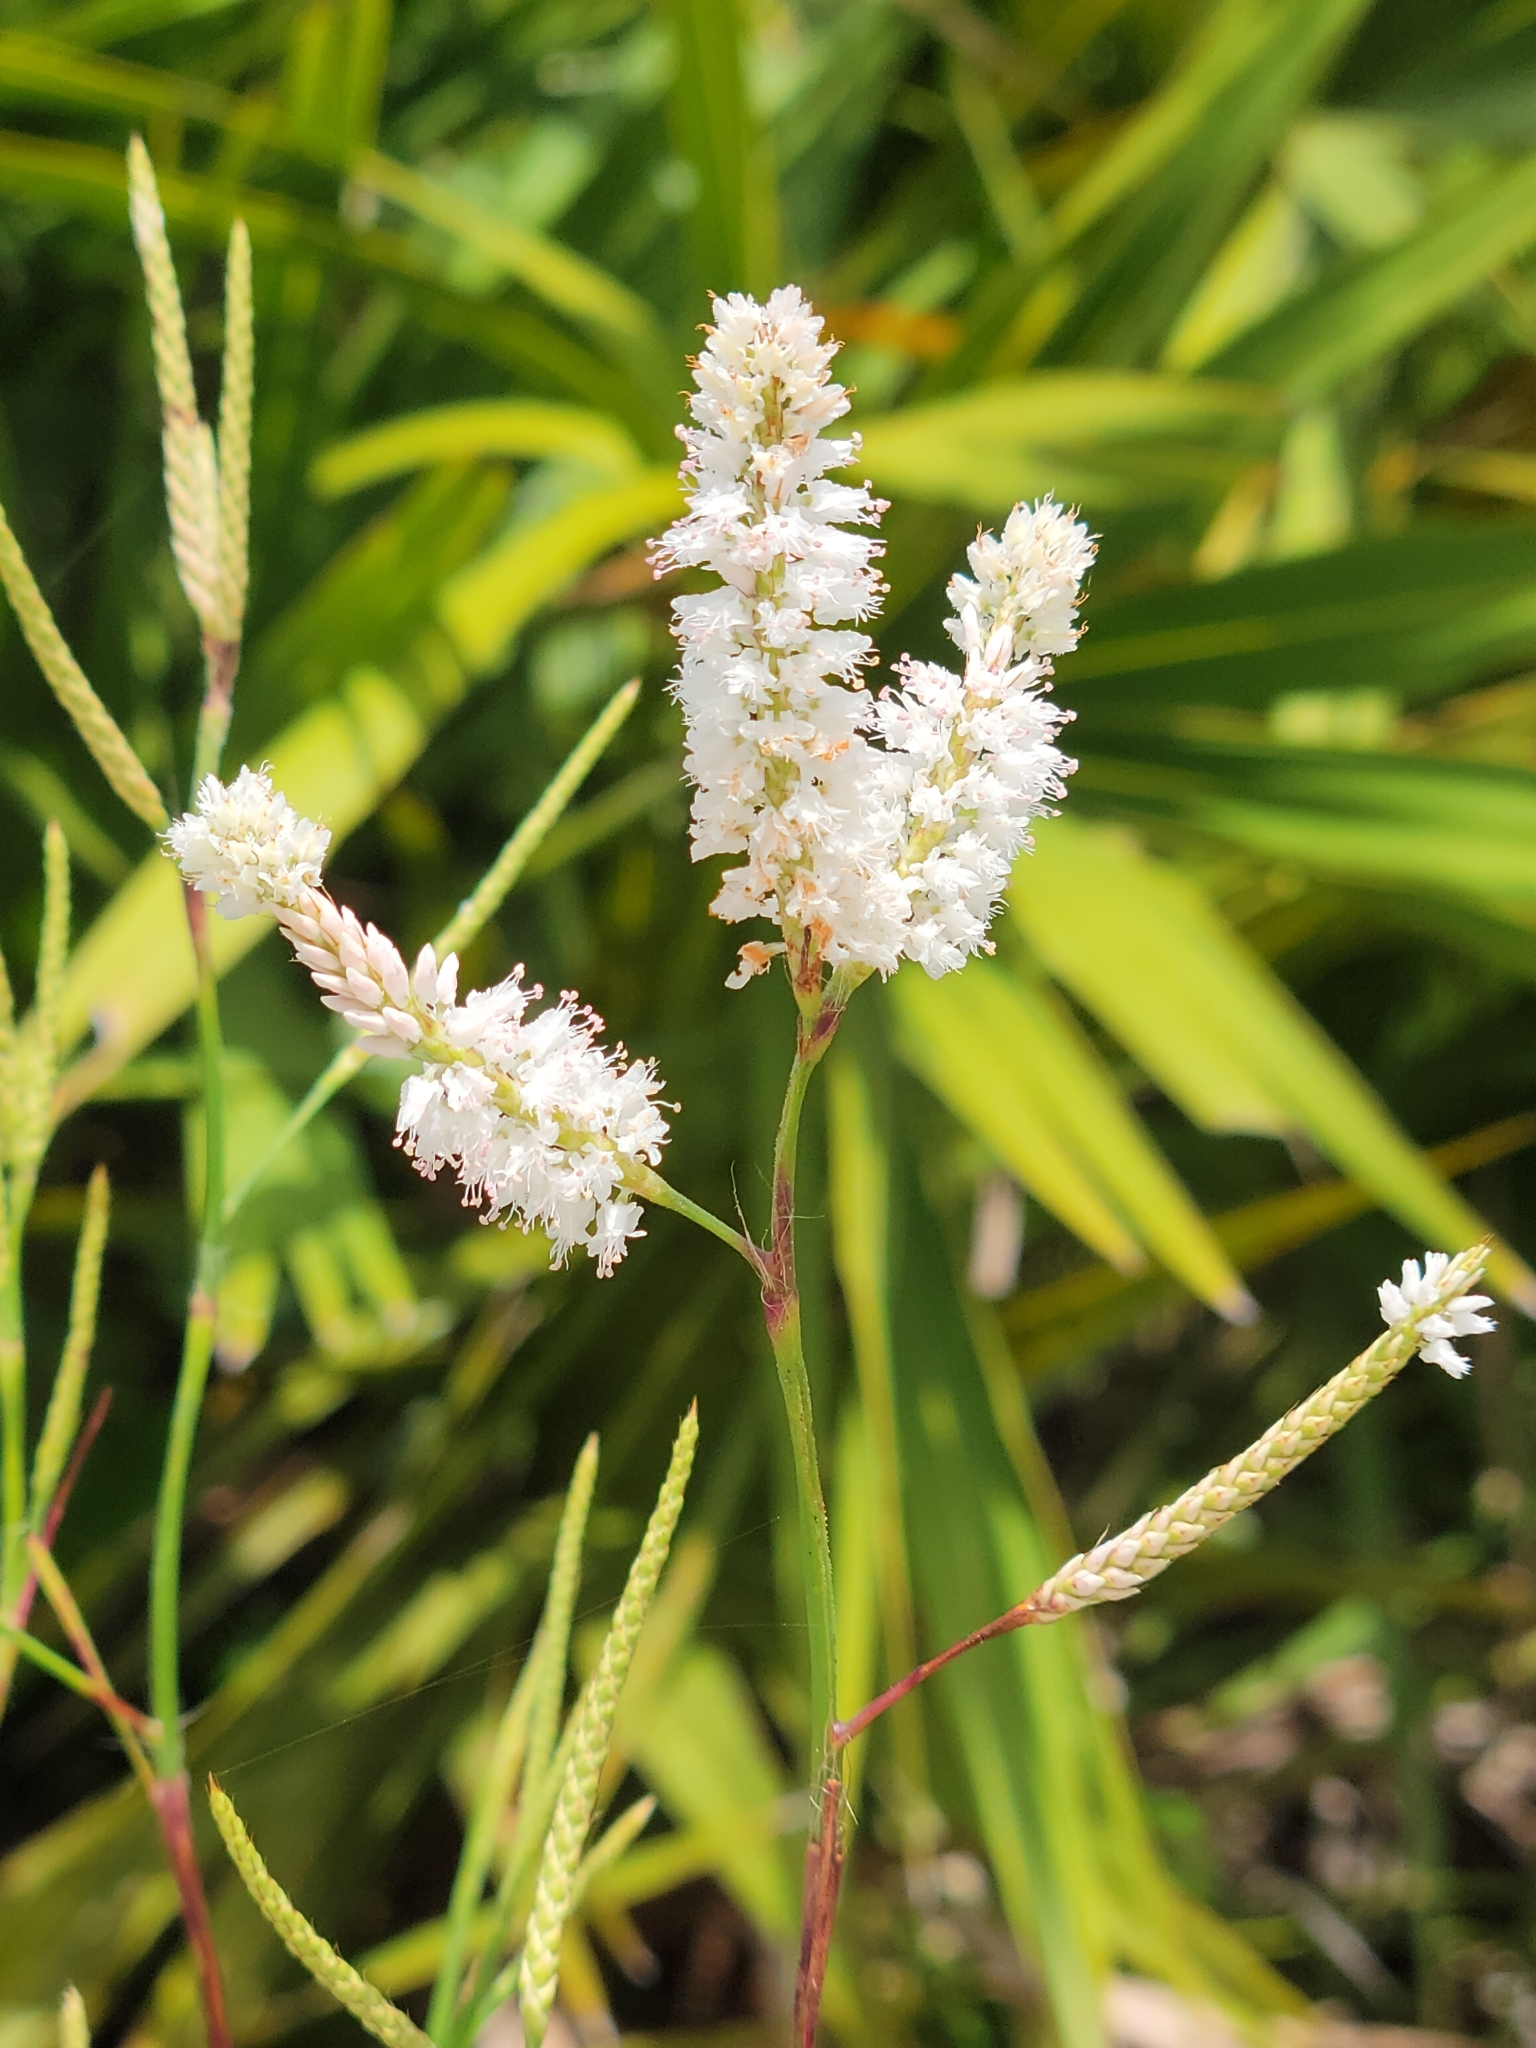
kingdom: Plantae
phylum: Tracheophyta
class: Magnoliopsida
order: Caryophyllales
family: Polygonaceae
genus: Polygonella
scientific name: Polygonella robusta
